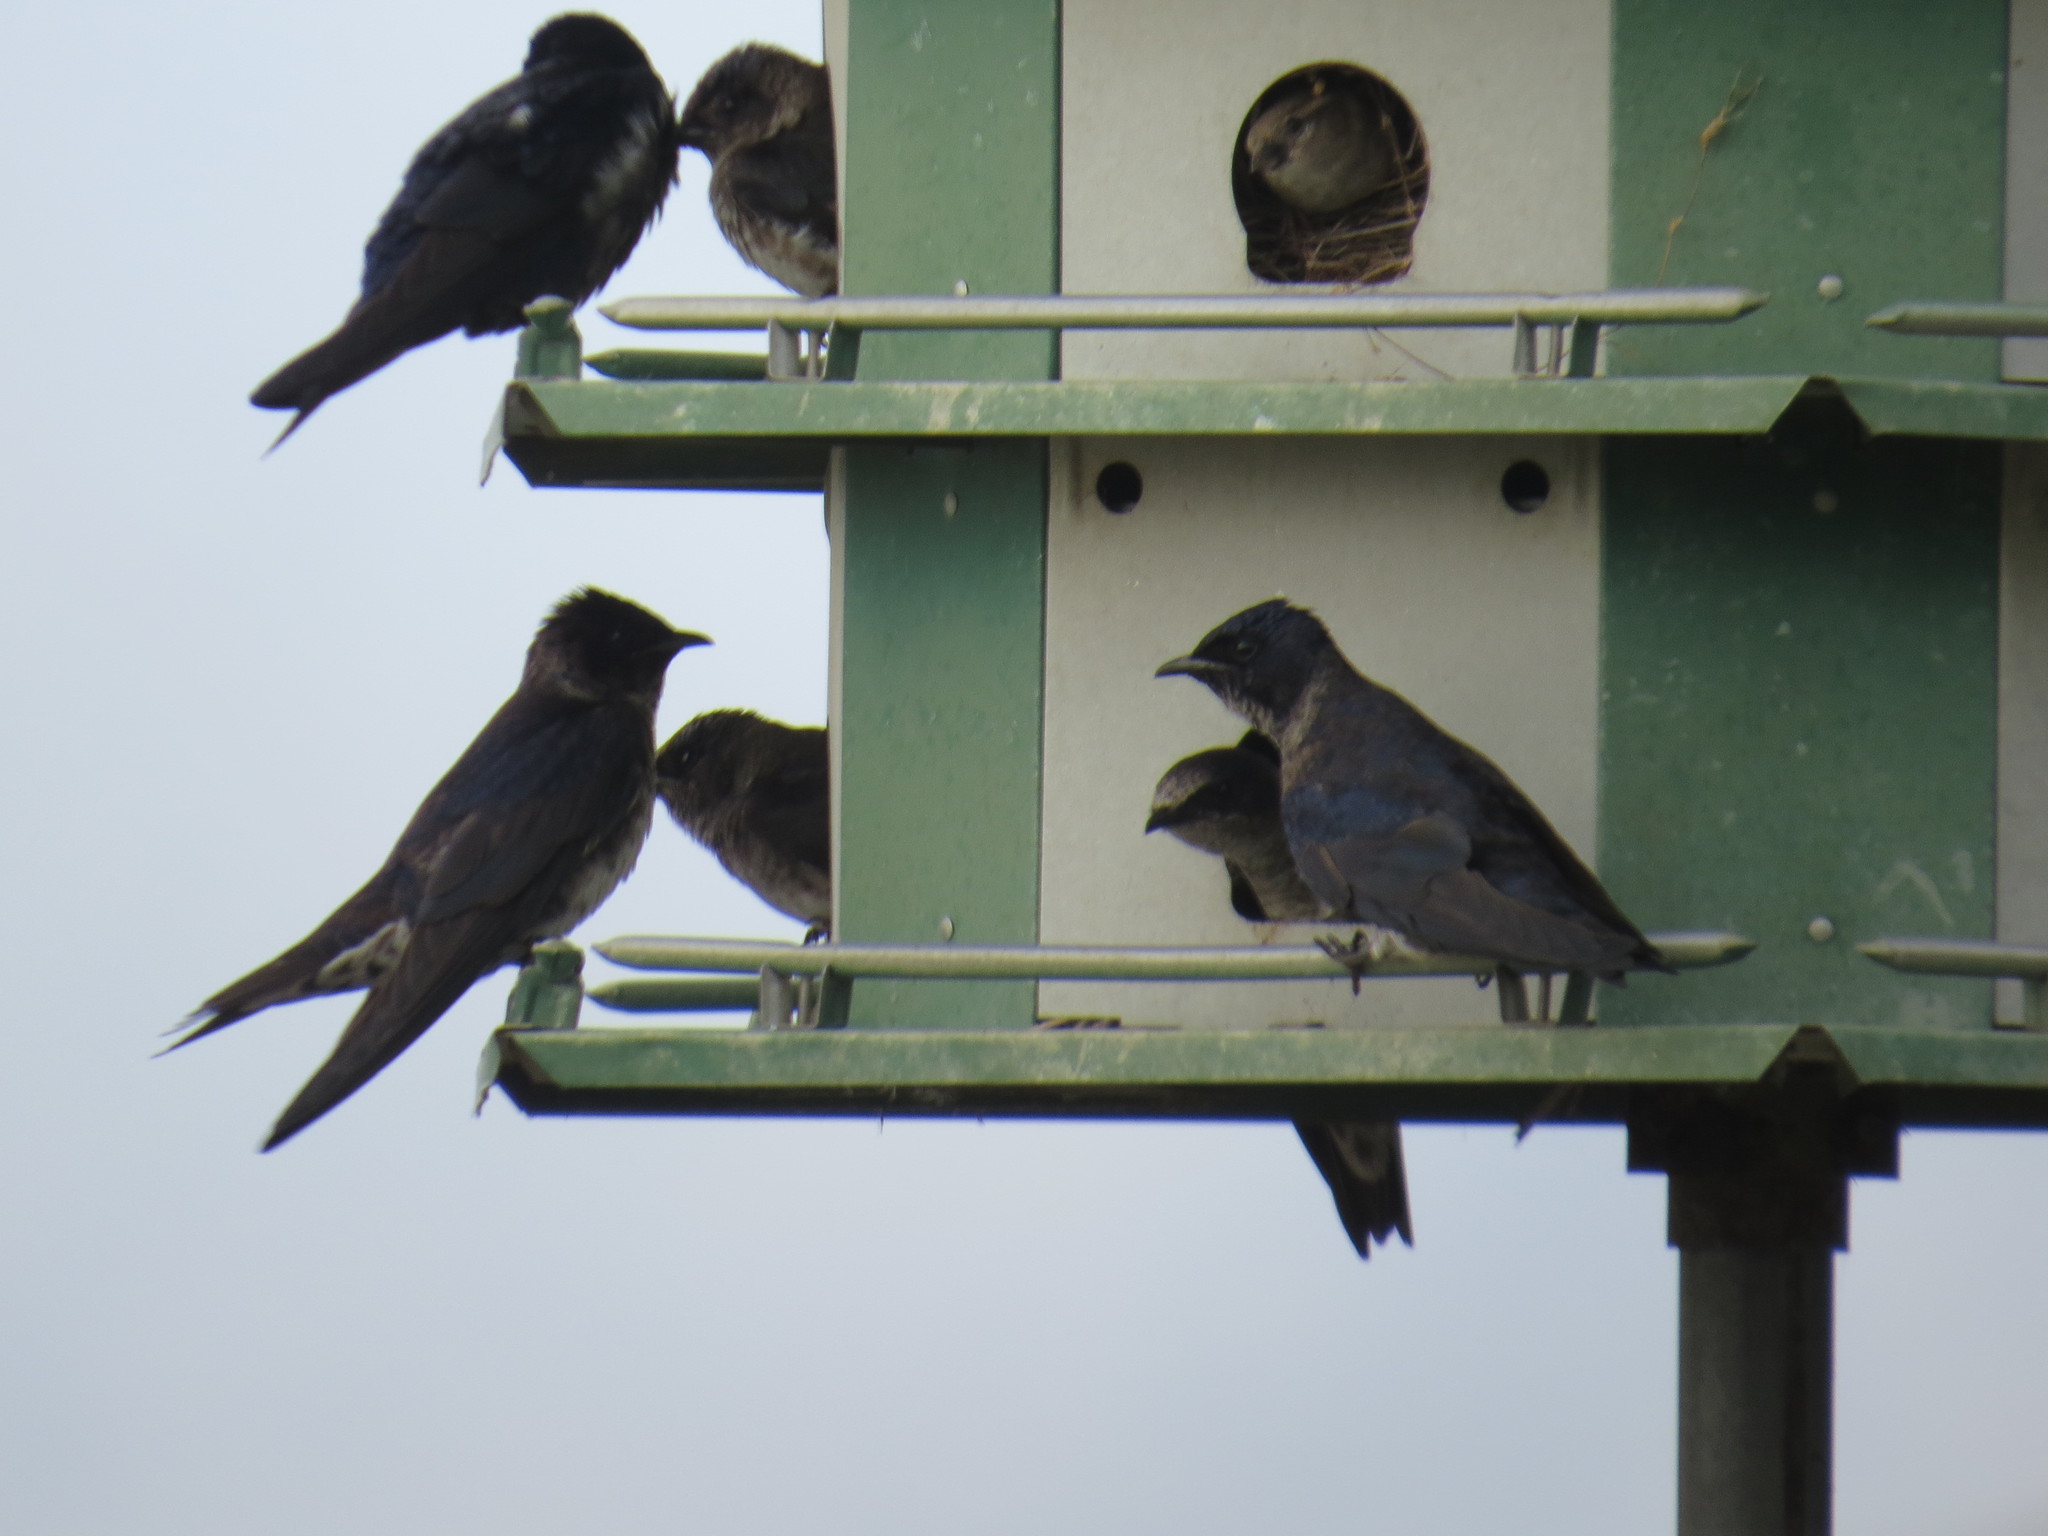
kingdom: Animalia
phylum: Chordata
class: Aves
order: Passeriformes
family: Hirundinidae
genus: Progne
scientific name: Progne subis
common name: Purple martin
